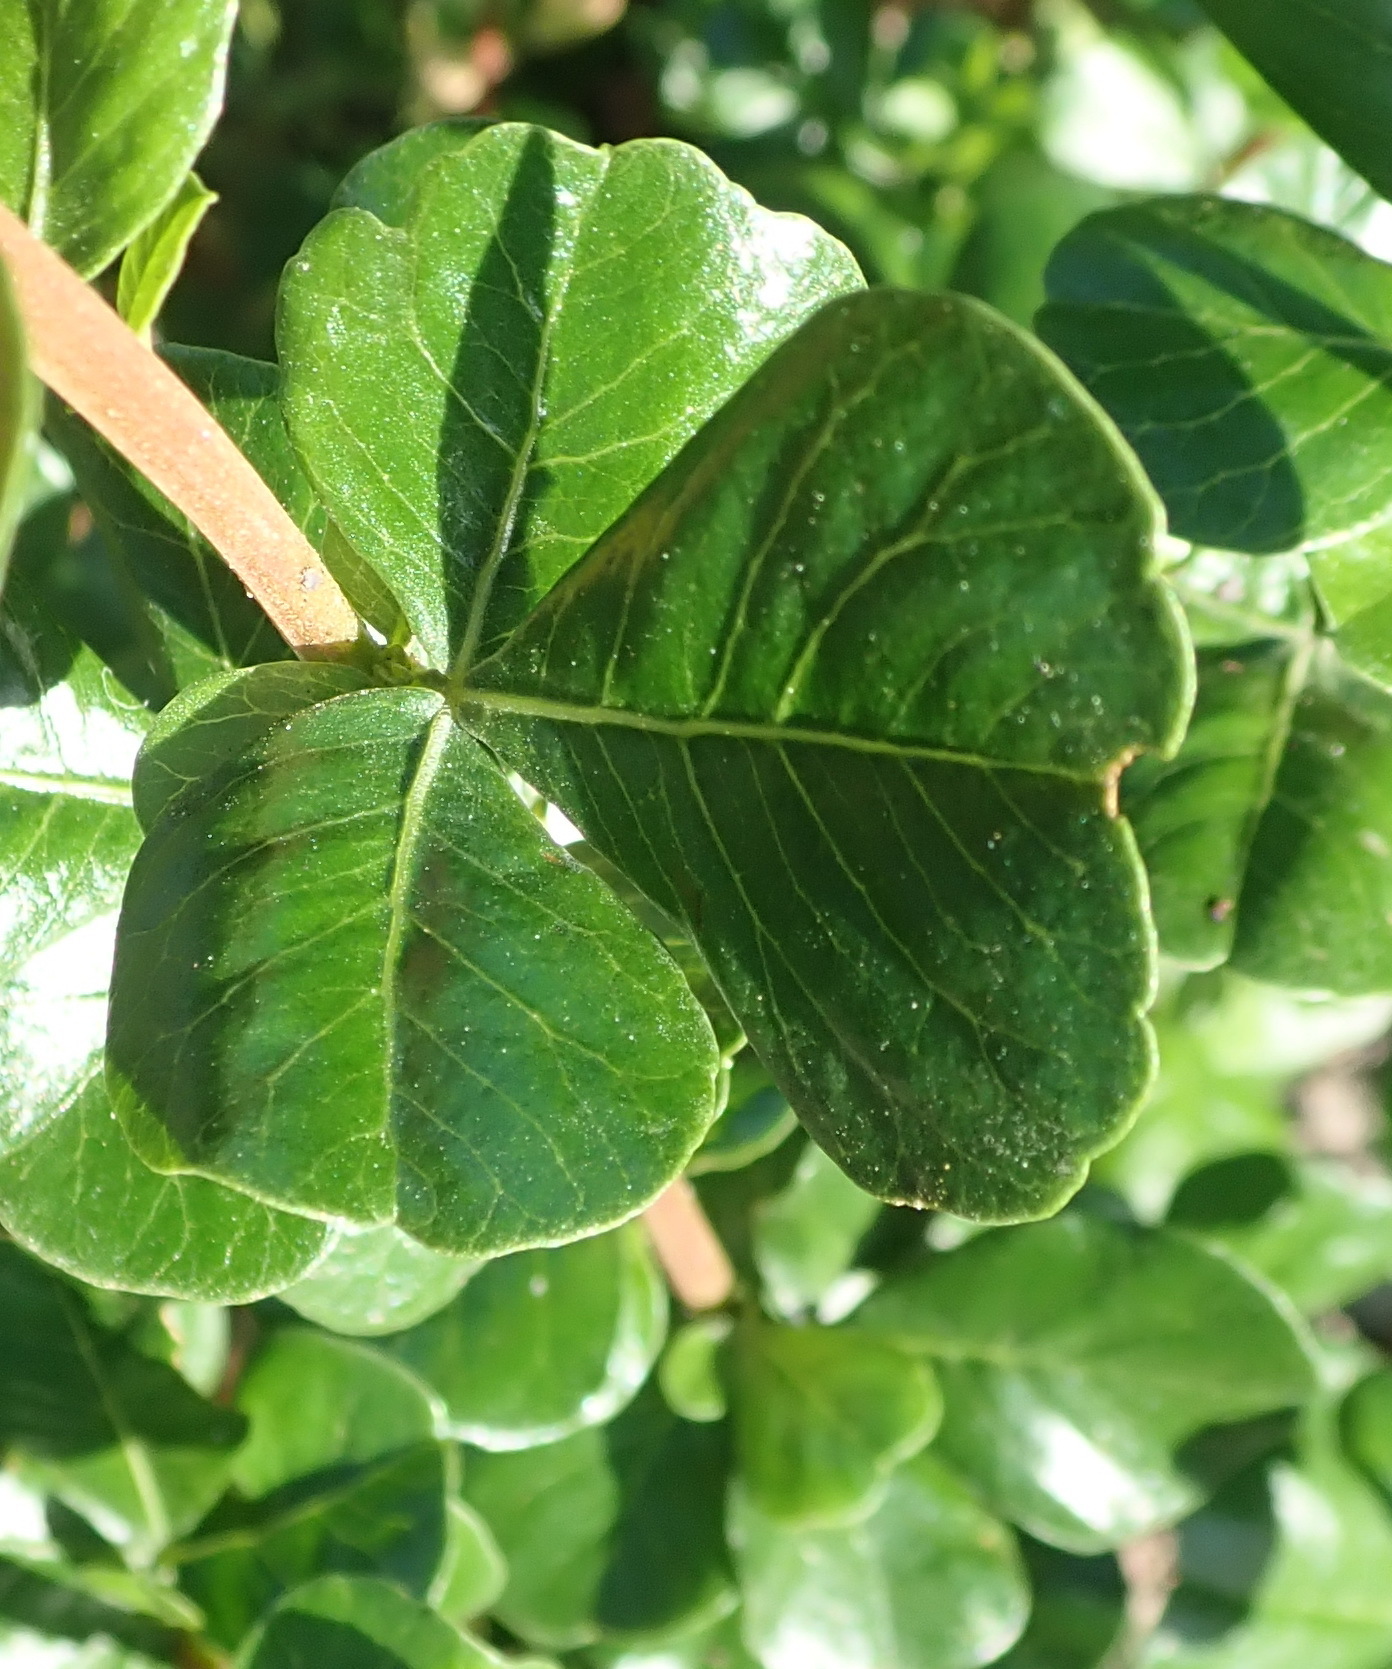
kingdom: Plantae
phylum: Tracheophyta
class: Magnoliopsida
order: Sapindales
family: Anacardiaceae
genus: Searsia
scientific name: Searsia glauca
